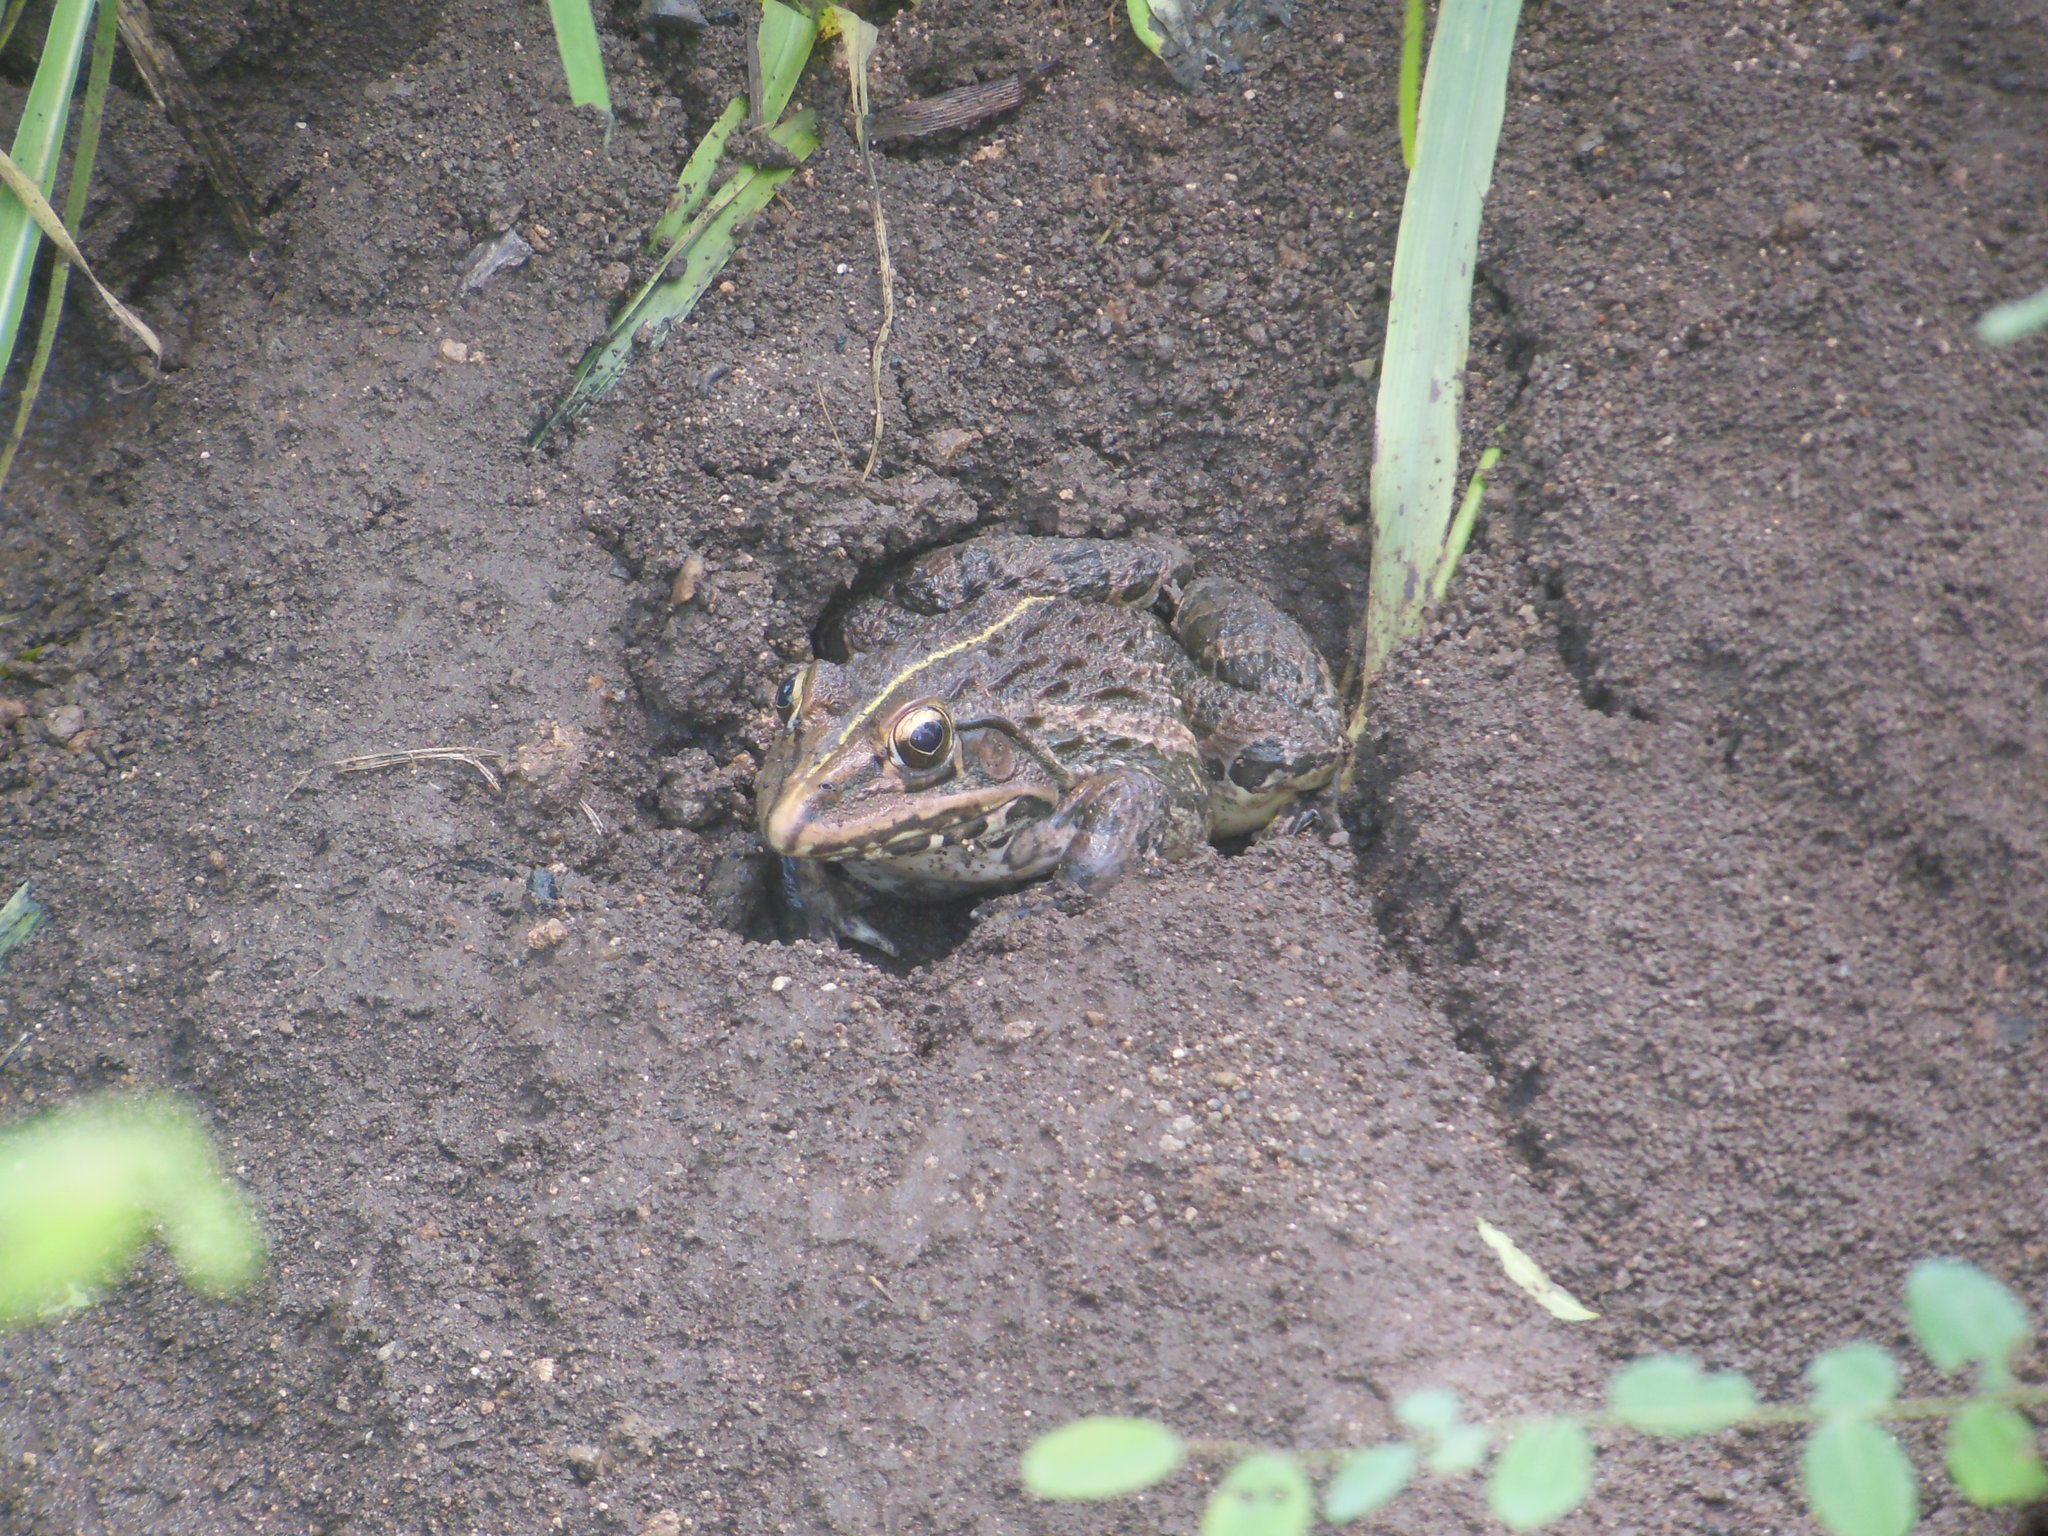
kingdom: Animalia
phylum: Chordata
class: Amphibia
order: Anura
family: Dicroglossidae
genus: Hoplobatrachus
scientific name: Hoplobatrachus tigerinus
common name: Indian bullfrog
